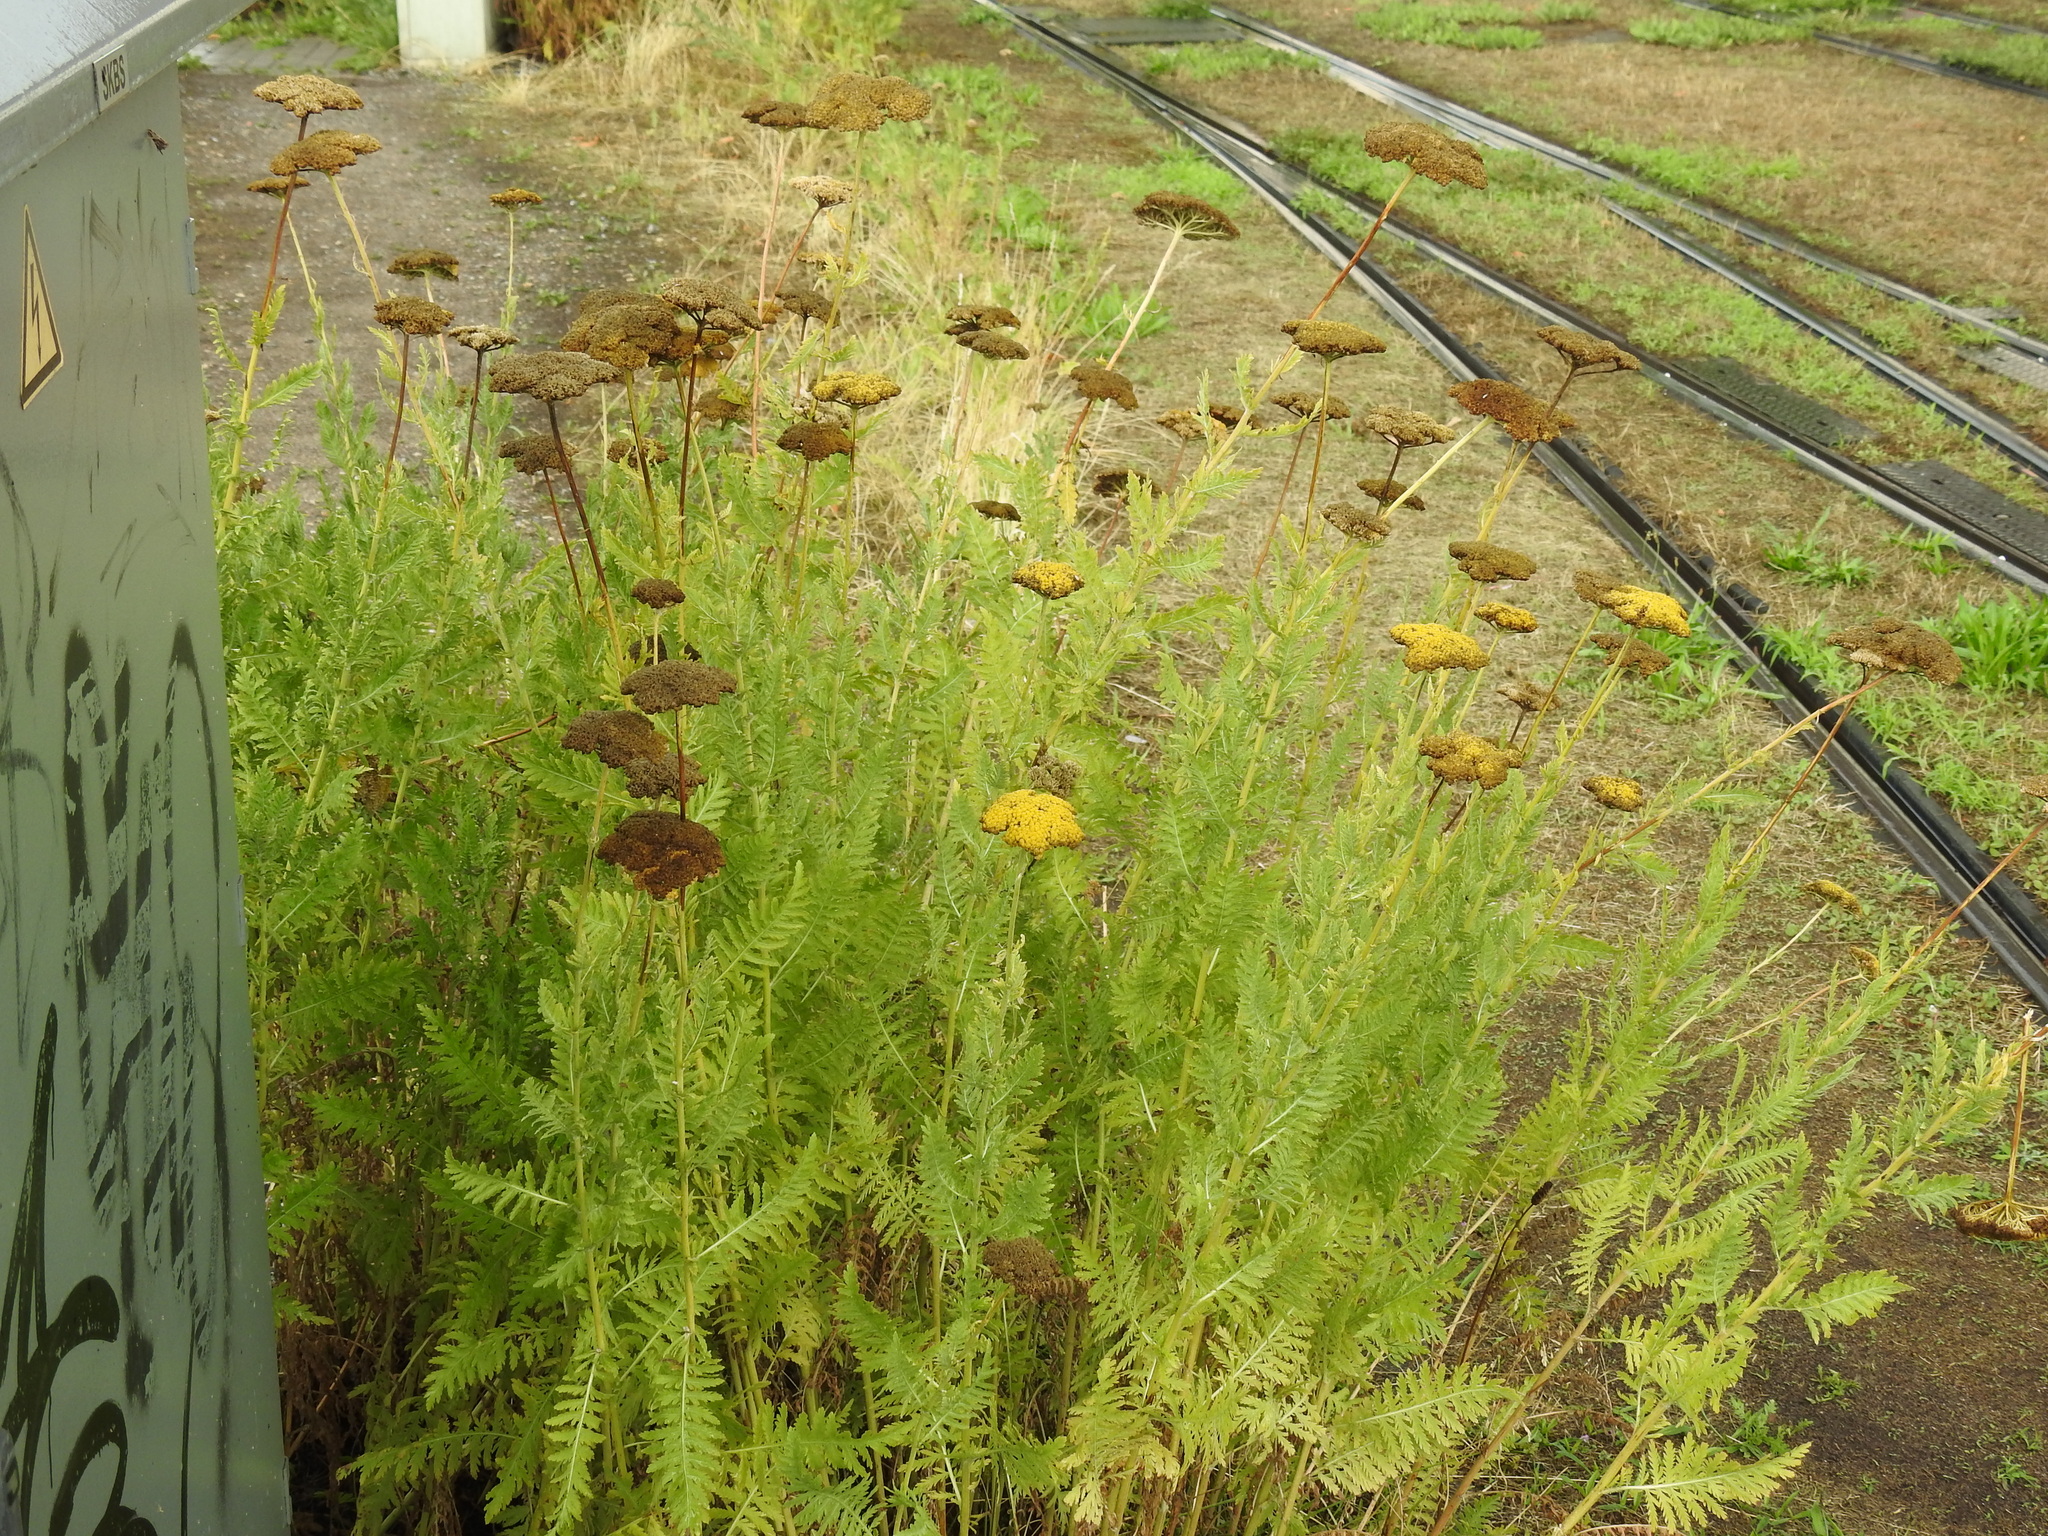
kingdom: Plantae
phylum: Tracheophyta
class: Magnoliopsida
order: Asterales
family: Asteraceae
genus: Tanacetum
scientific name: Tanacetum vulgare
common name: Common tansy
